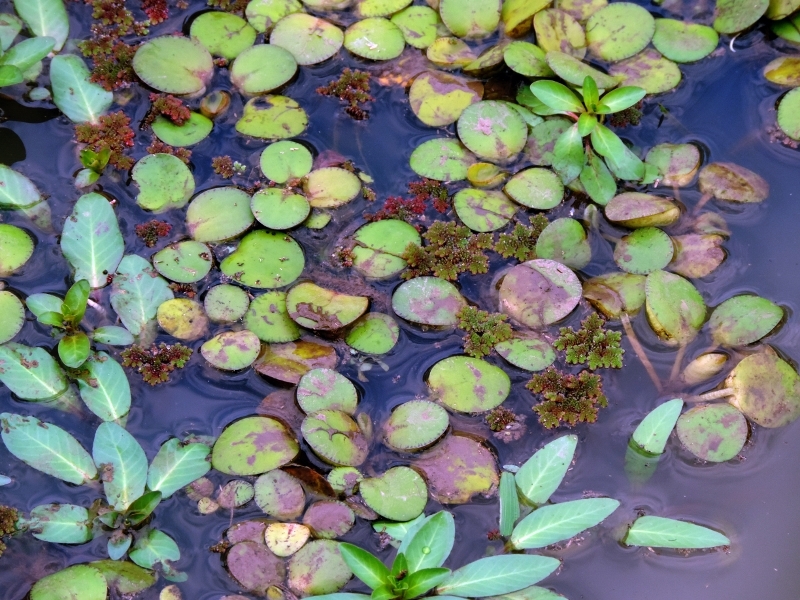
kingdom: Plantae
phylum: Tracheophyta
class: Liliopsida
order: Alismatales
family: Hydrocharitaceae
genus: Hydrocharis
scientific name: Hydrocharis laevigata
